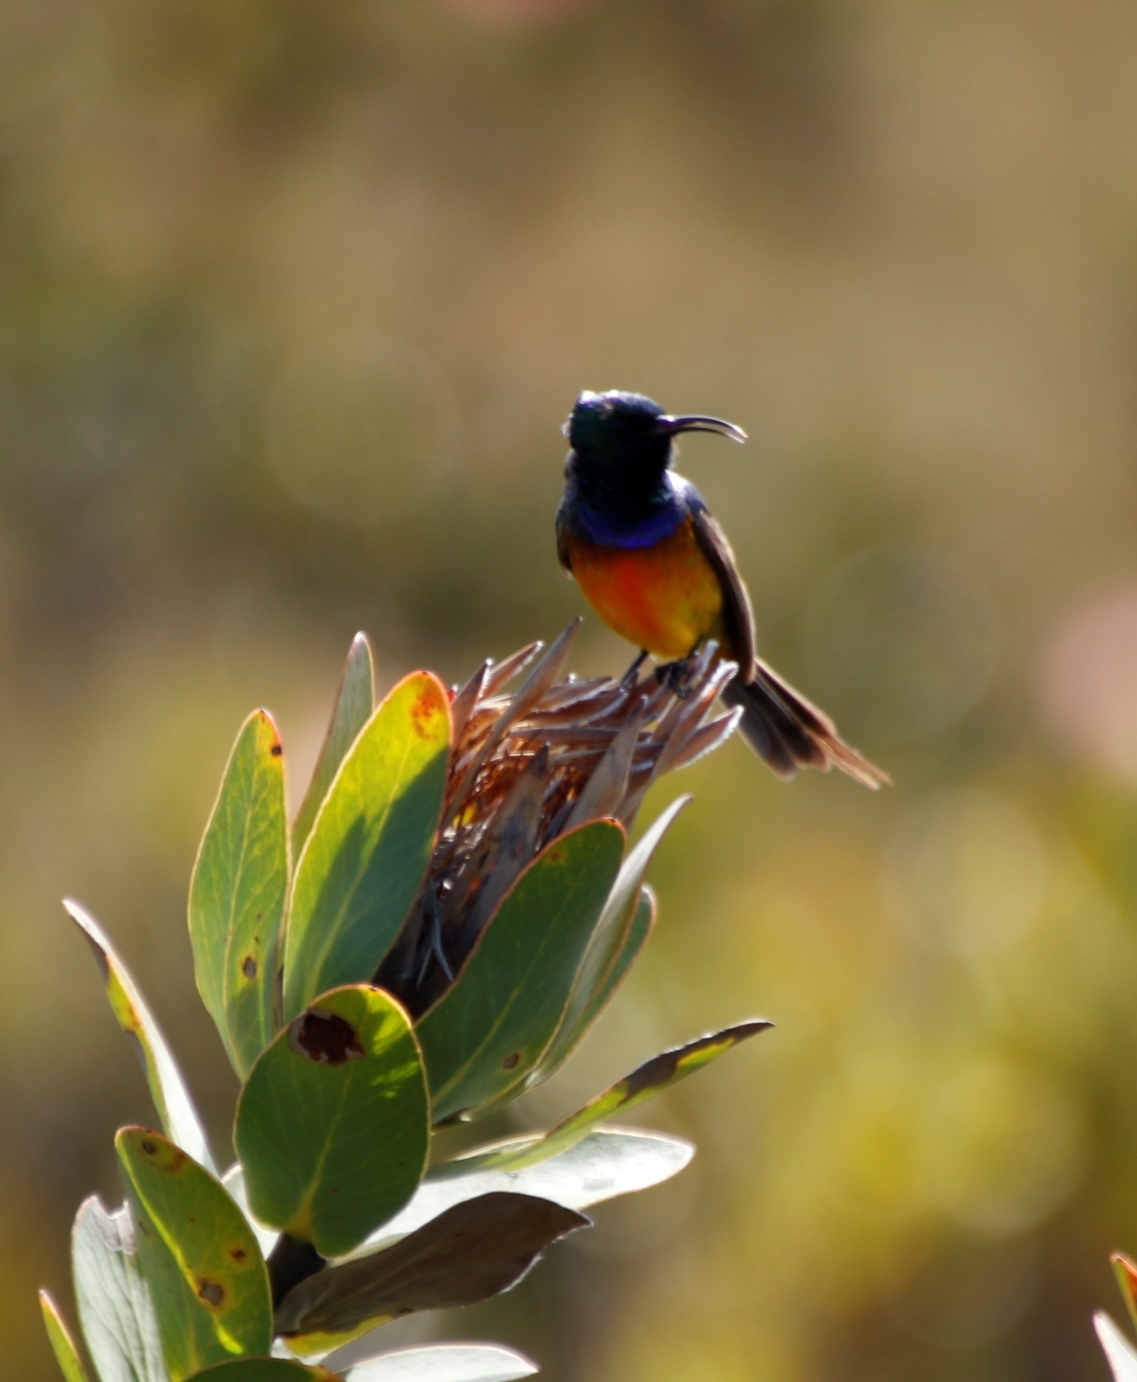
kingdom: Plantae
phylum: Tracheophyta
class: Magnoliopsida
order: Proteales
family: Proteaceae
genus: Protea
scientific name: Protea compacta
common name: Bot river protea
